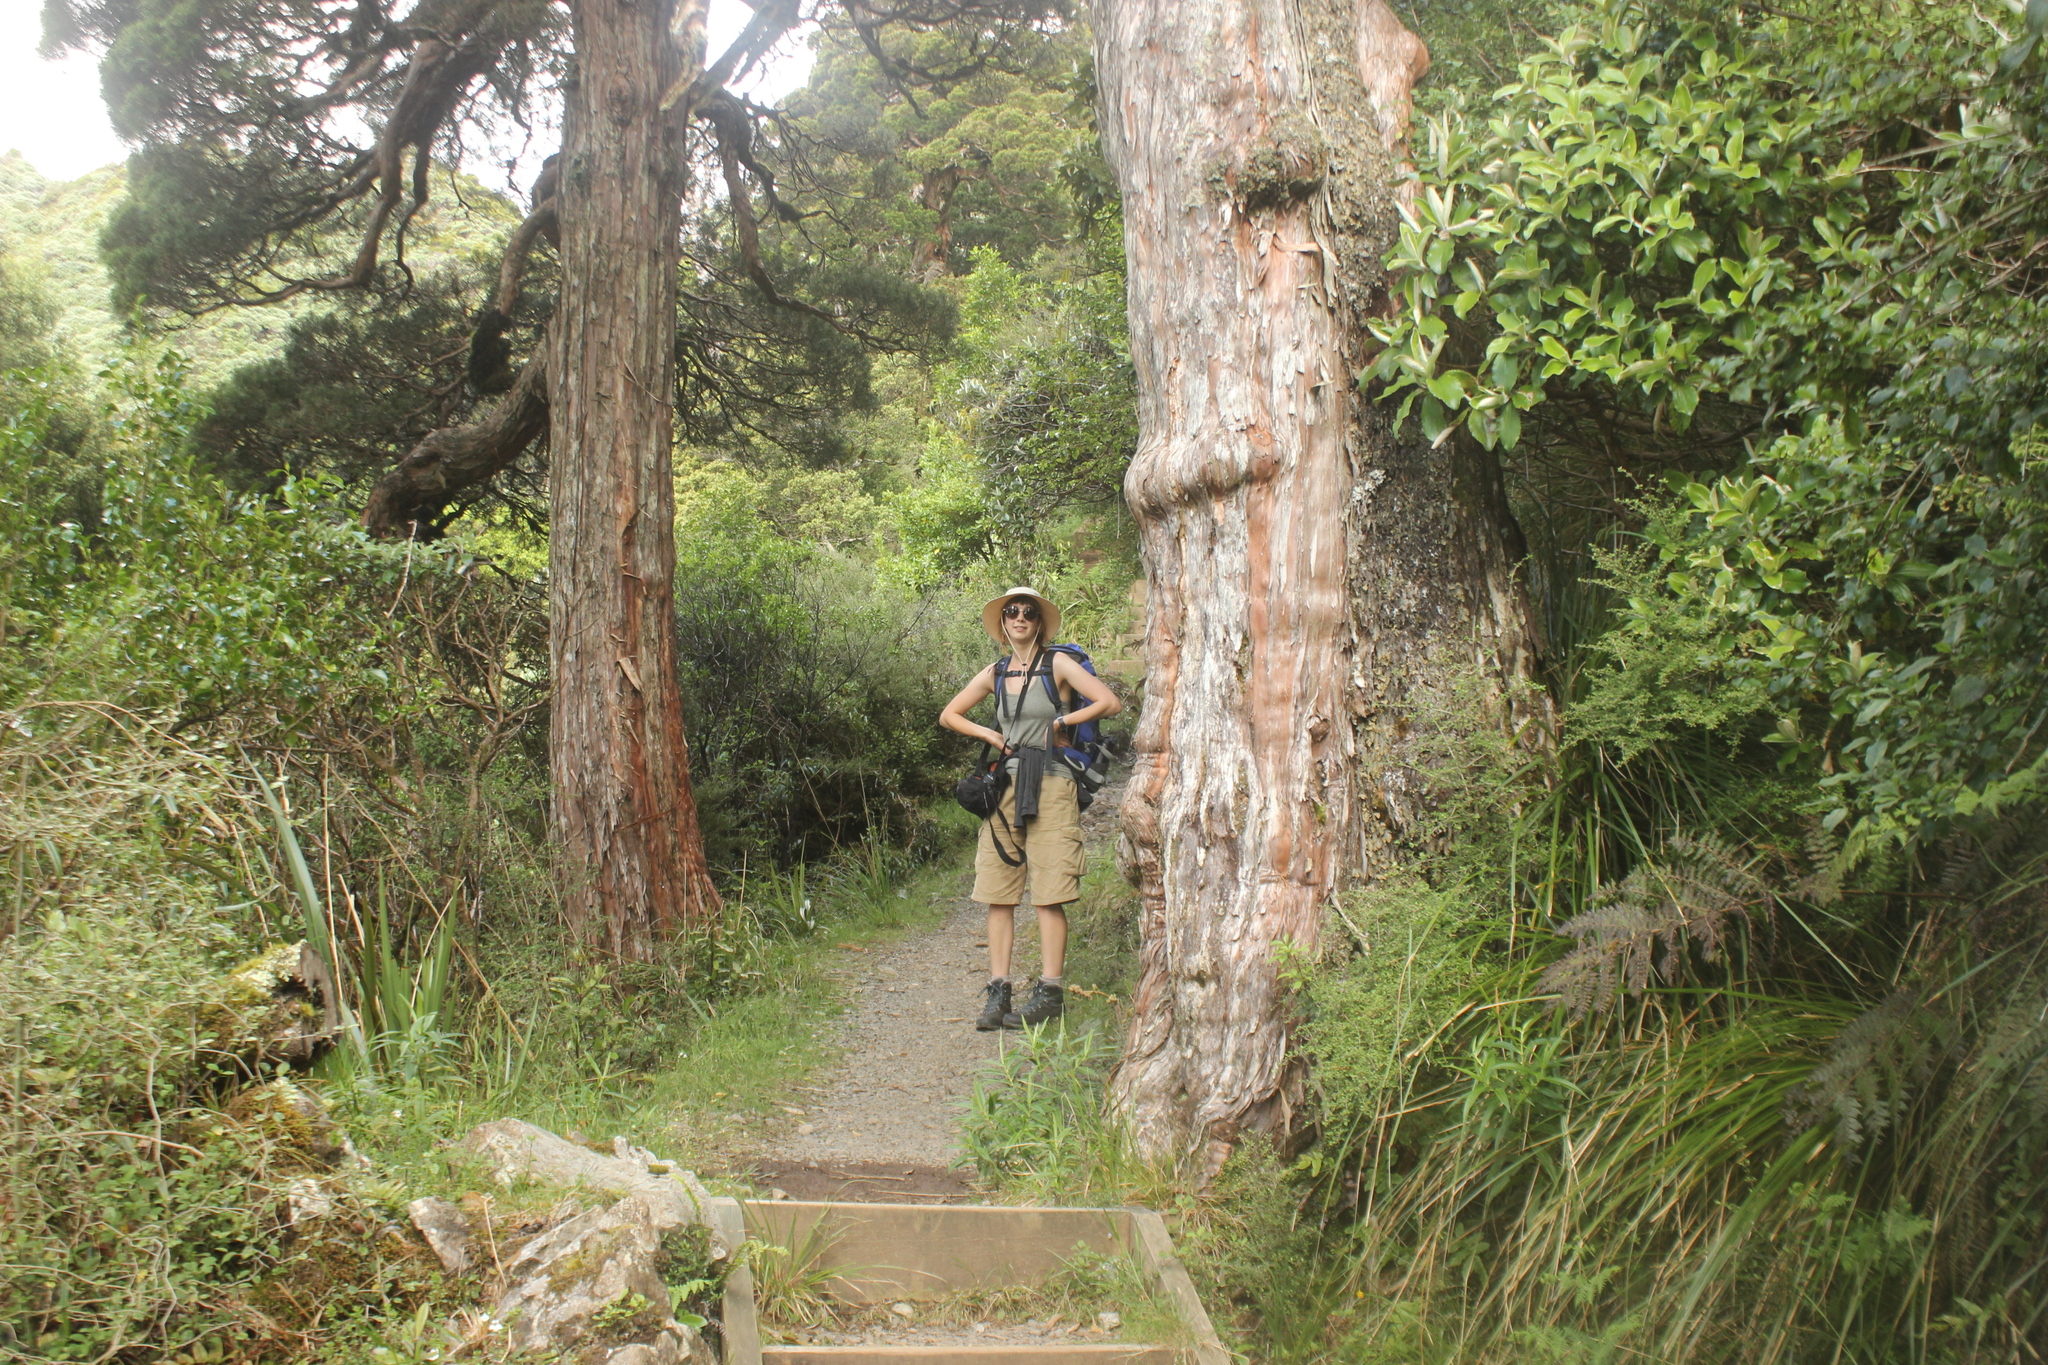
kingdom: Plantae
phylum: Tracheophyta
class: Pinopsida
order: Pinales
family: Cupressaceae
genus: Libocedrus
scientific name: Libocedrus bidwillii
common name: Cedar
